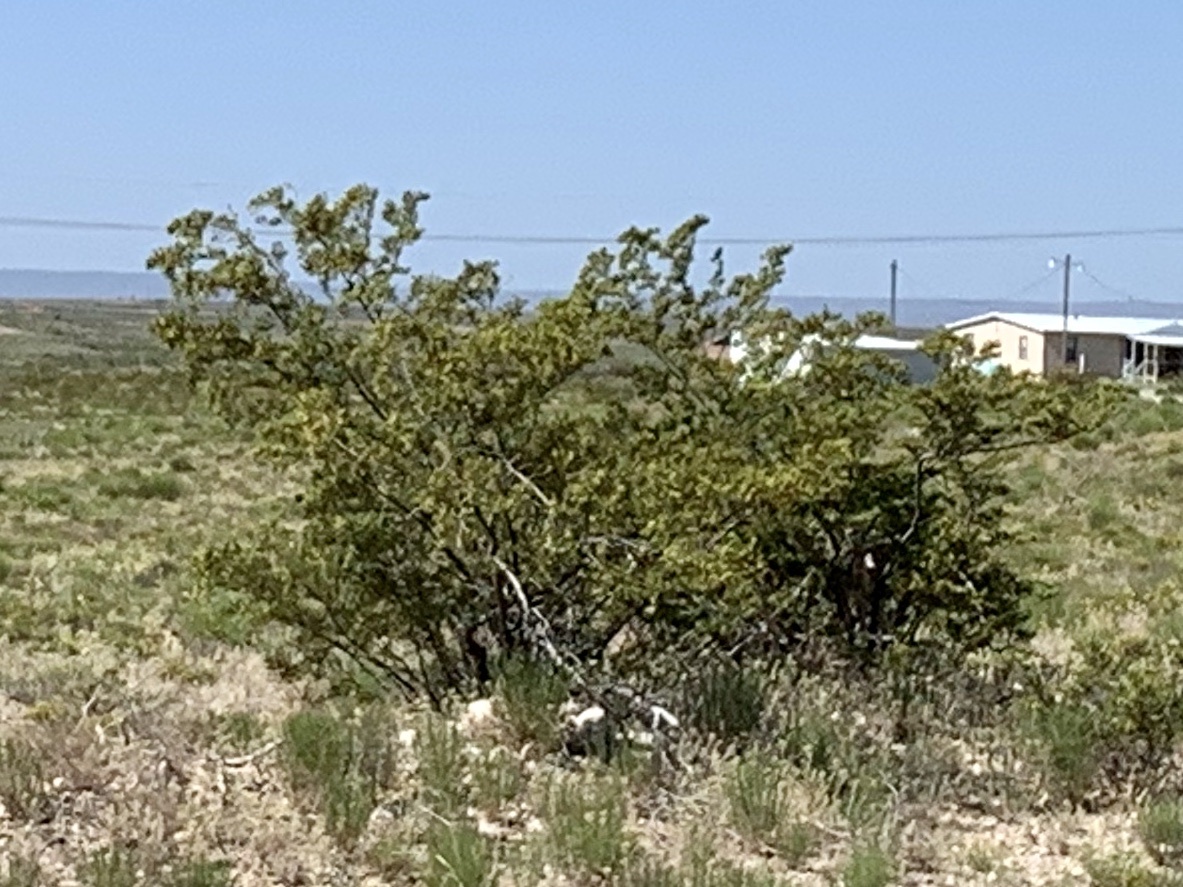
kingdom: Plantae
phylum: Tracheophyta
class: Magnoliopsida
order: Zygophyllales
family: Zygophyllaceae
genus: Larrea
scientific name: Larrea tridentata
